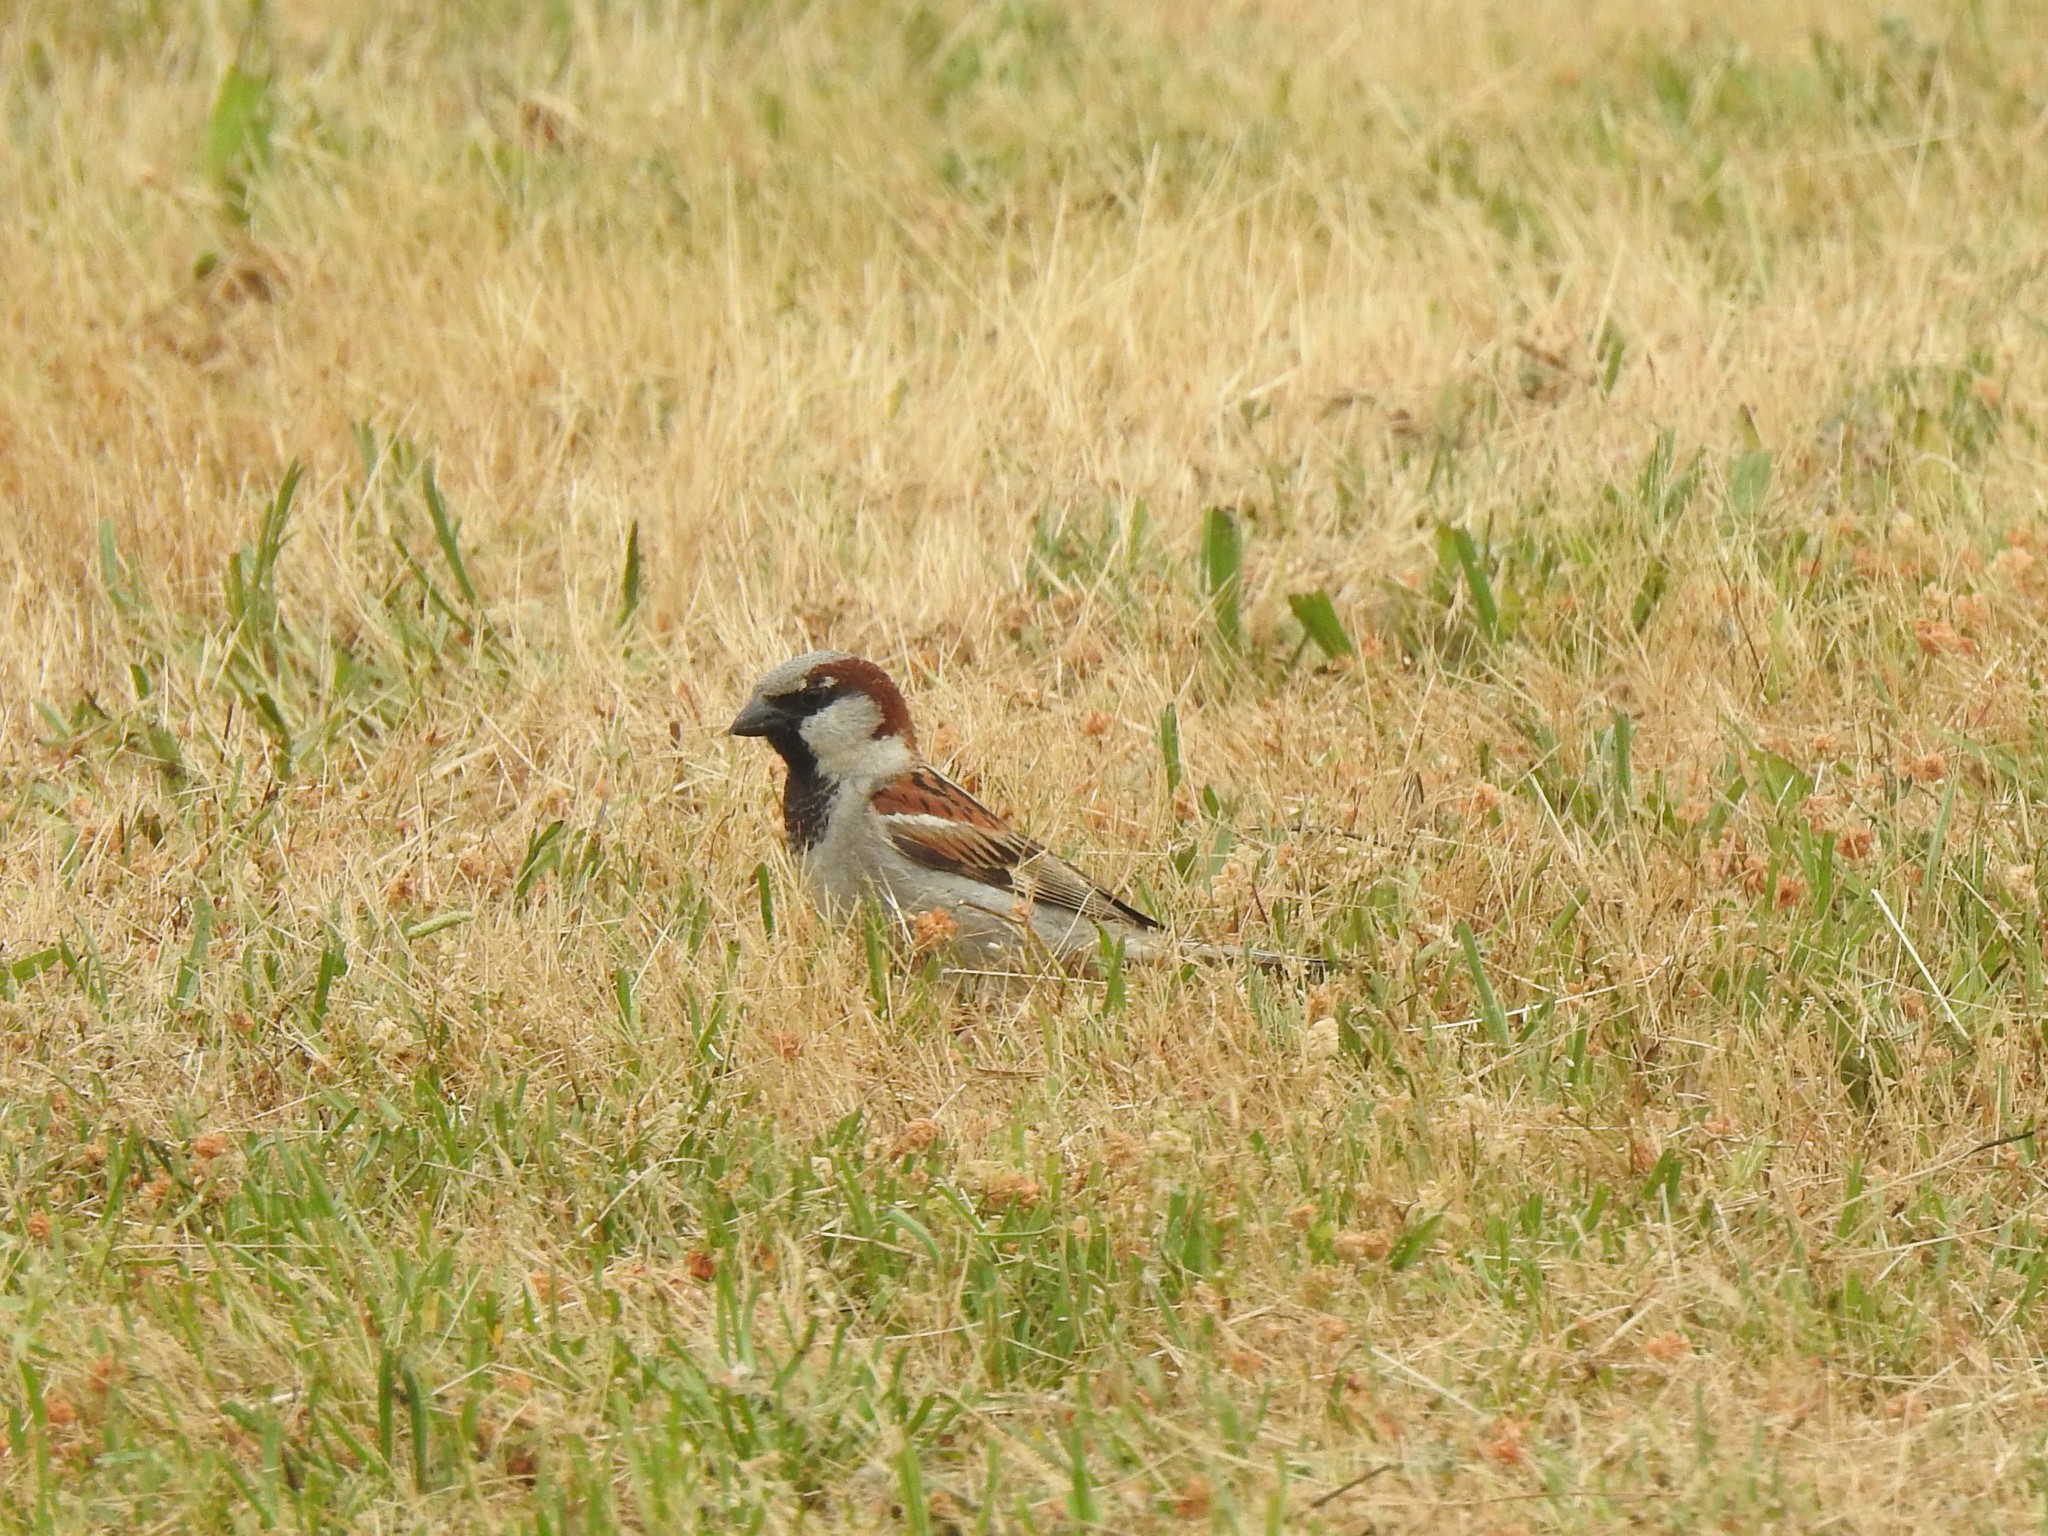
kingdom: Animalia
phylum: Chordata
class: Aves
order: Passeriformes
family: Passeridae
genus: Passer
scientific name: Passer domesticus
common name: House sparrow
